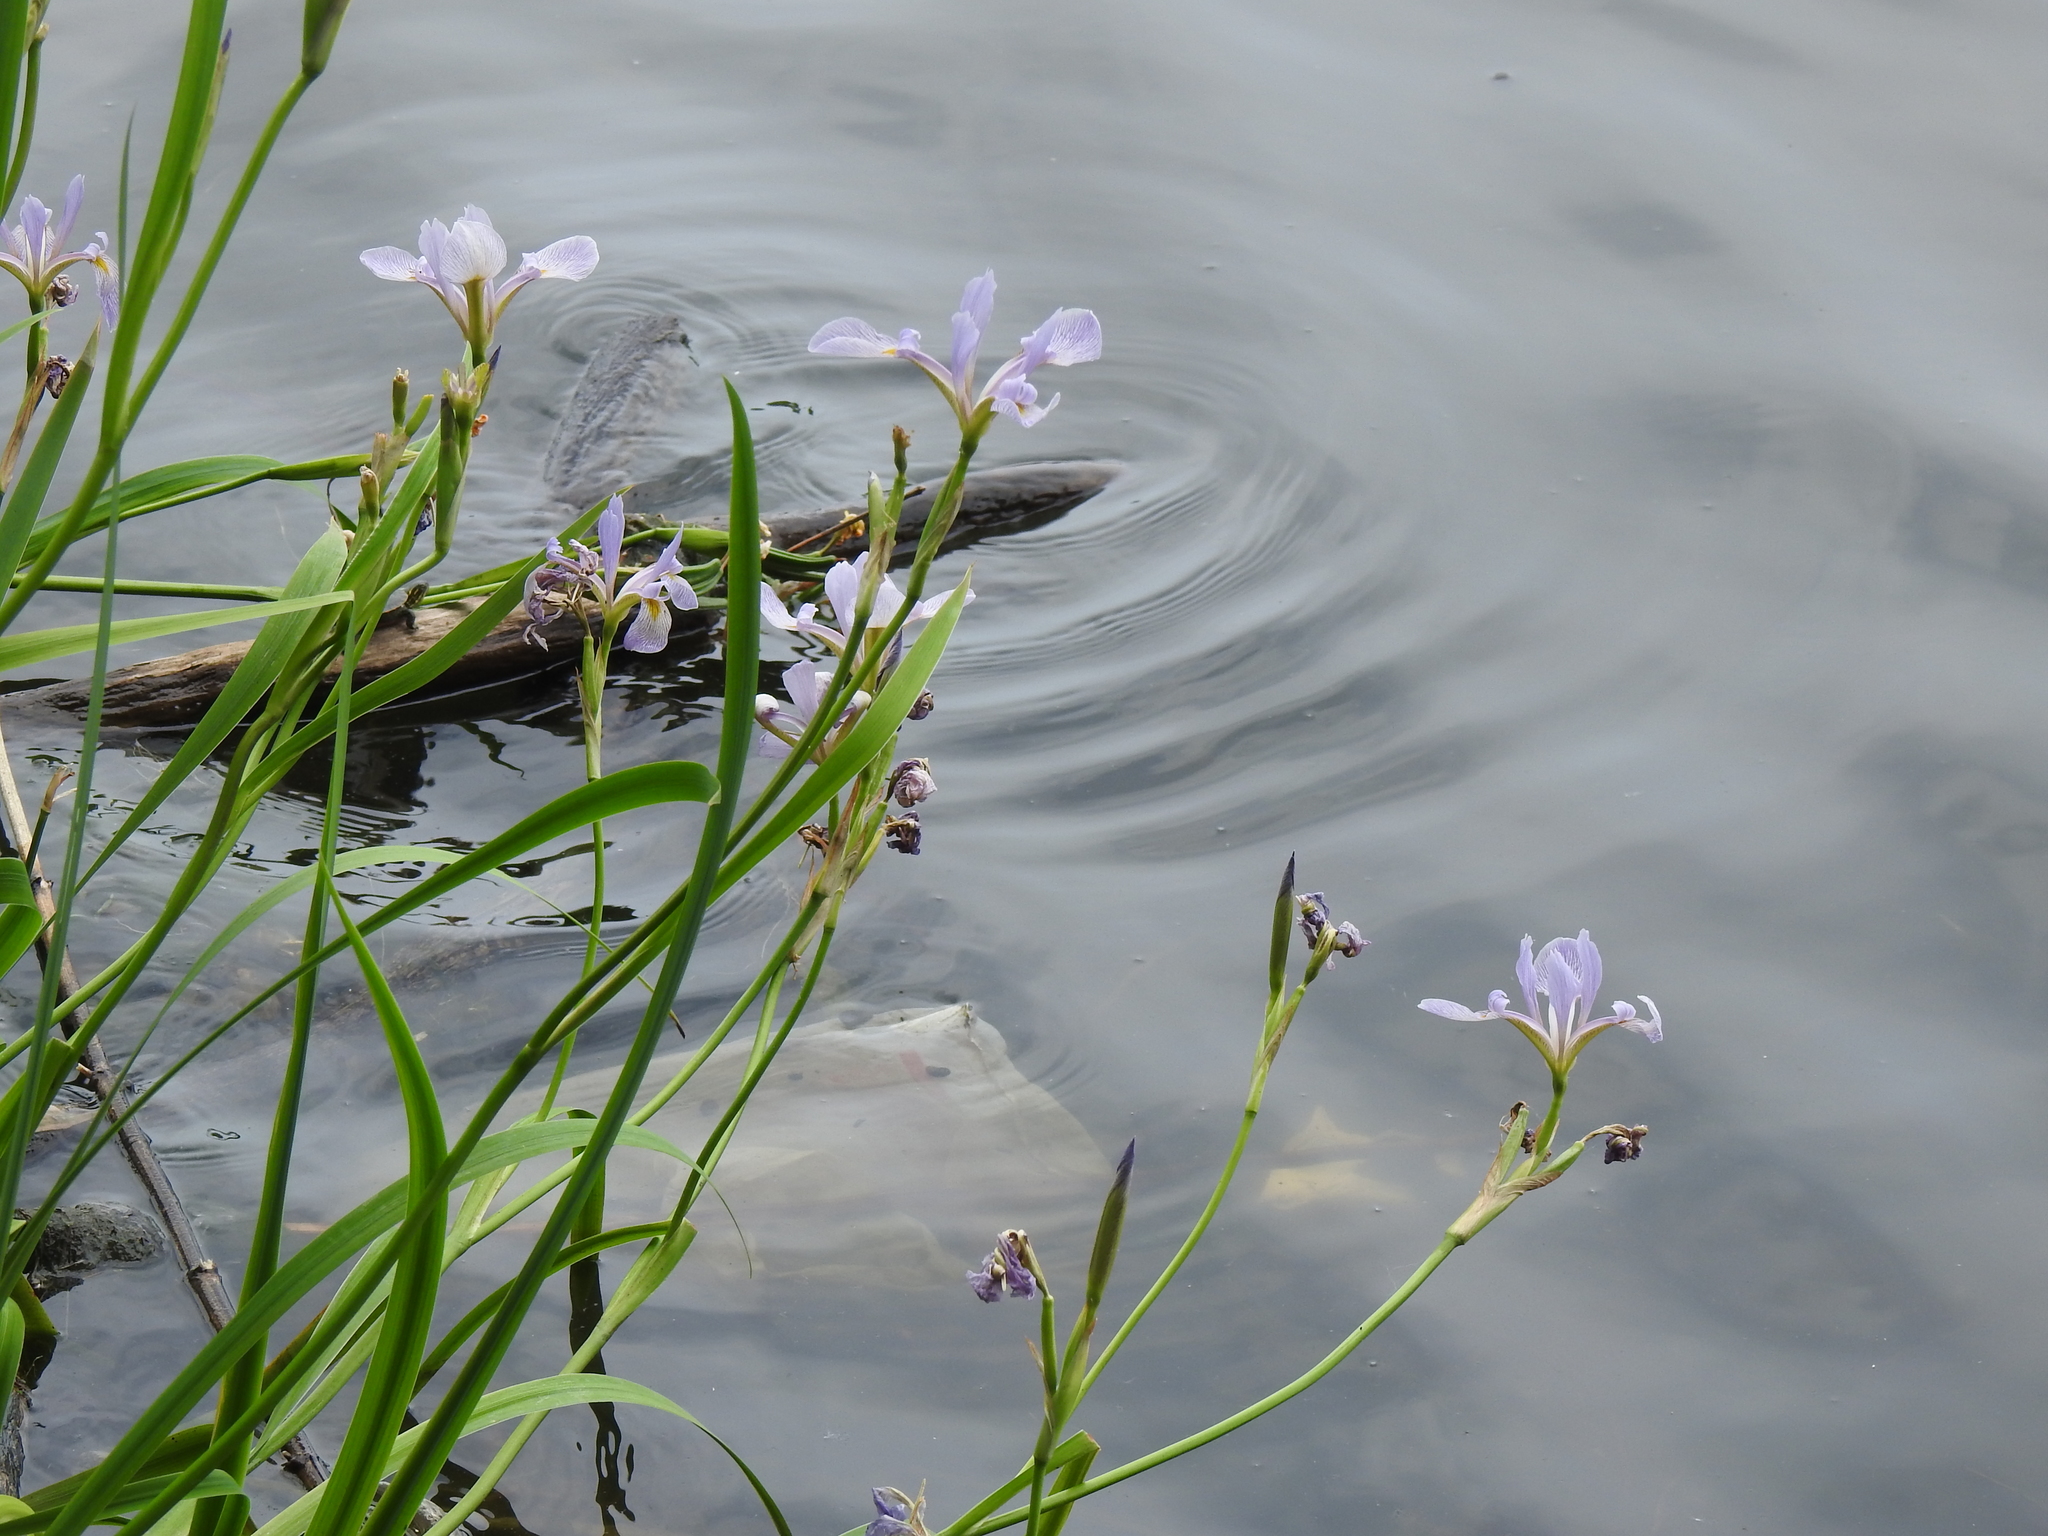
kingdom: Plantae
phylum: Tracheophyta
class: Liliopsida
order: Asparagales
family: Iridaceae
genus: Iris
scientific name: Iris virginica
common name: Southern blue flag
